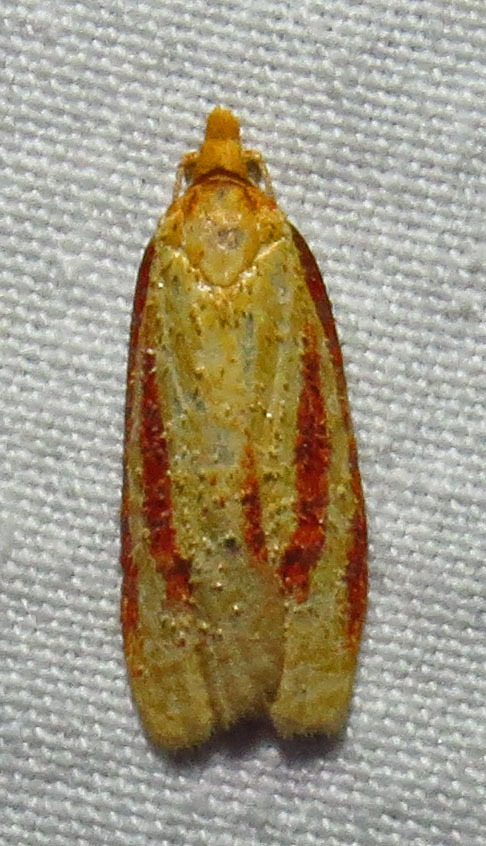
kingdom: Animalia
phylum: Arthropoda
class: Insecta
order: Lepidoptera
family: Tortricidae
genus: Sparganothis
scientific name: Sparganothis bistriata
